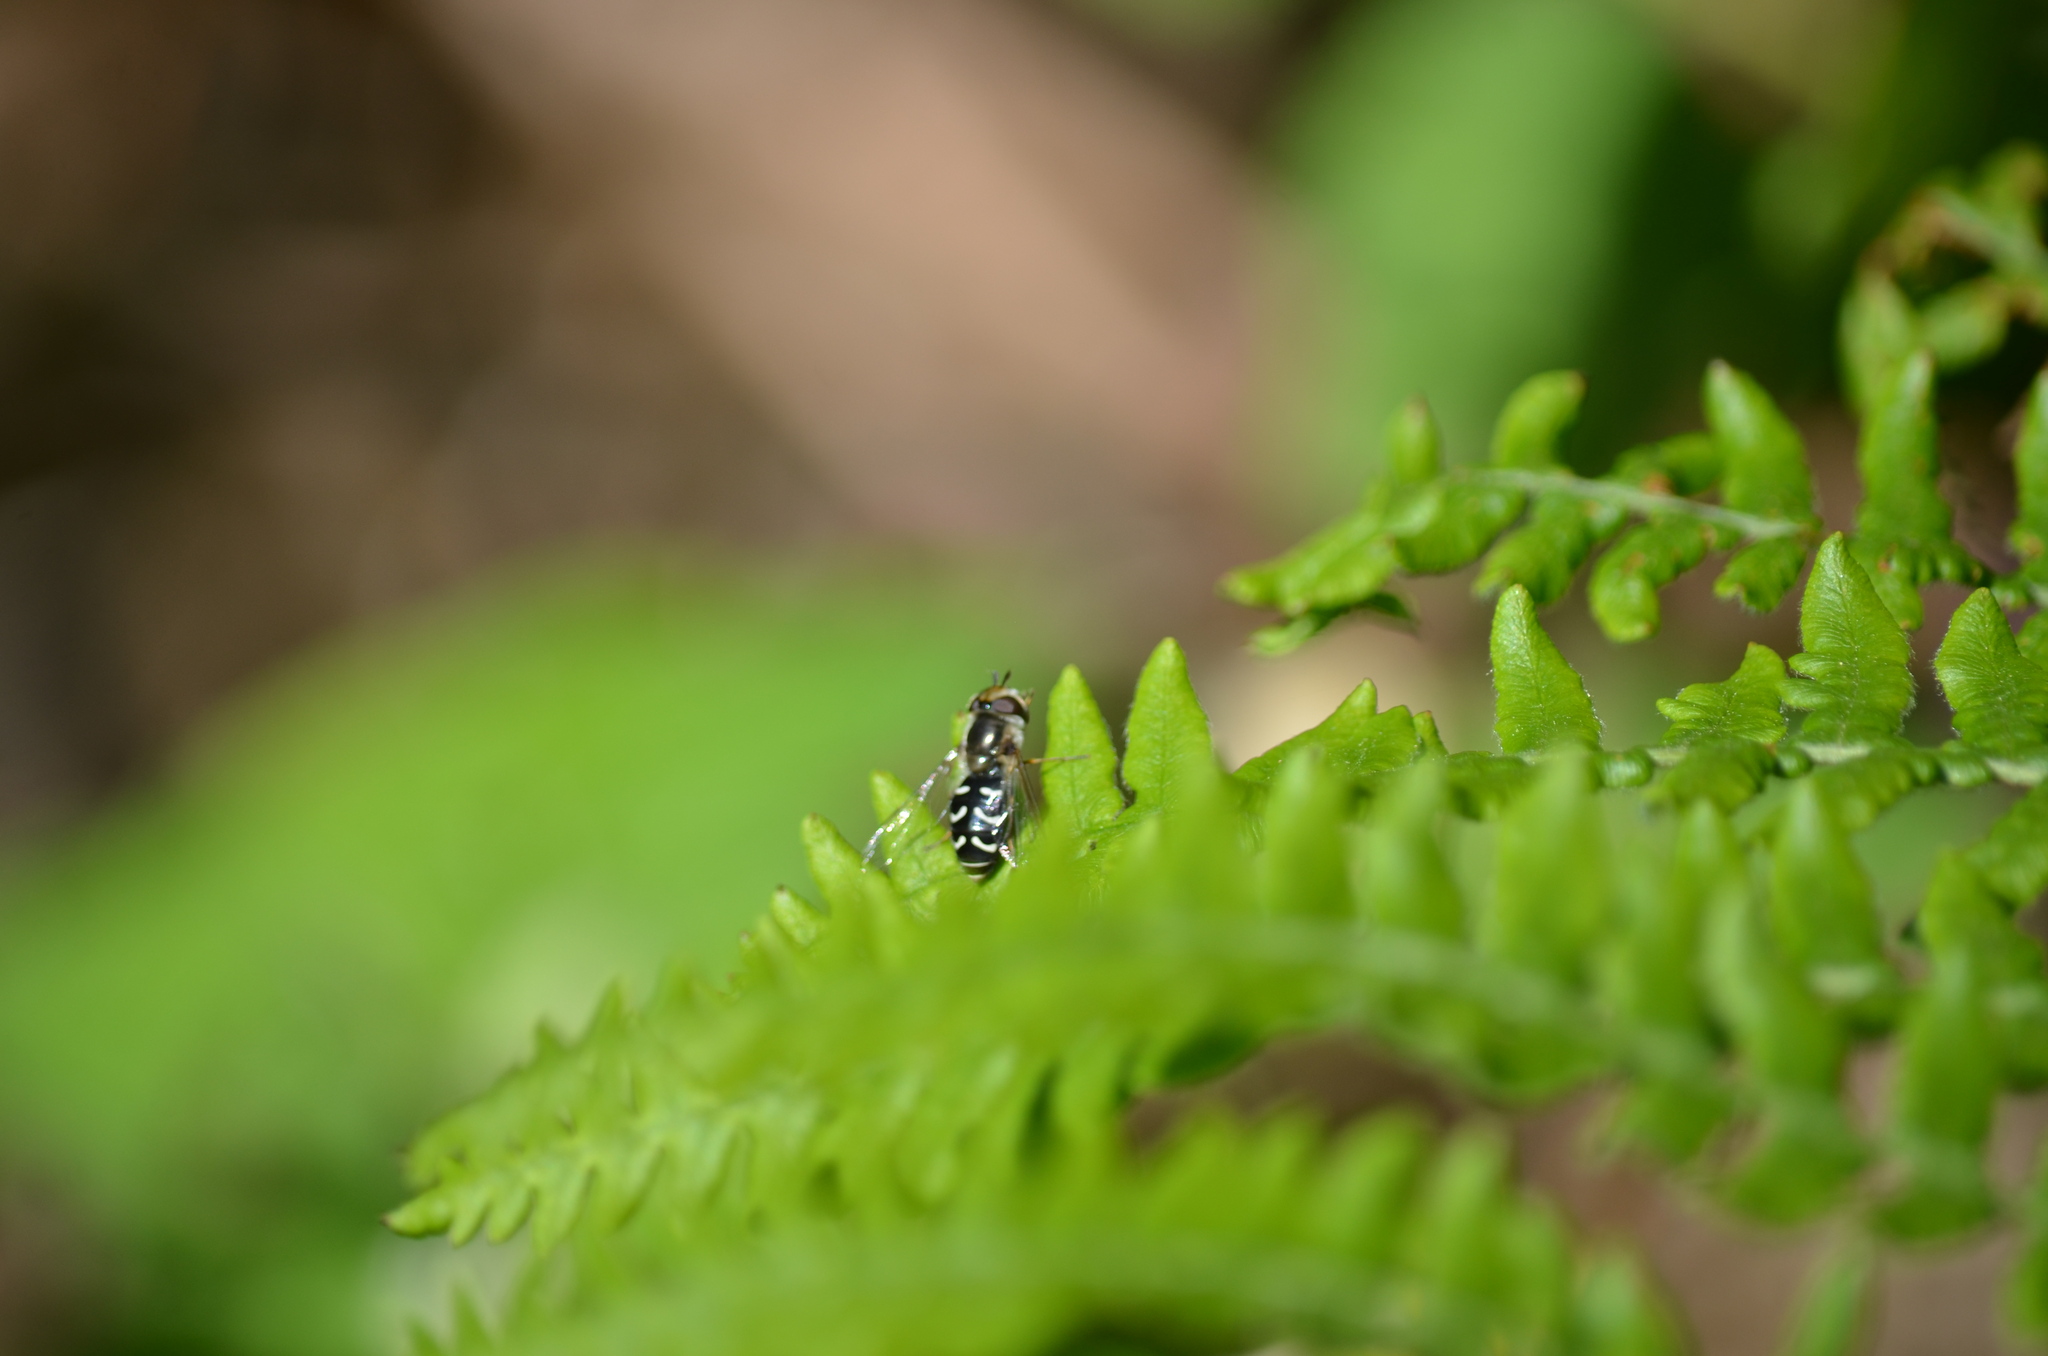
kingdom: Animalia
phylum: Arthropoda
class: Insecta
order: Diptera
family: Syrphidae
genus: Scaeva
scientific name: Scaeva affinis
